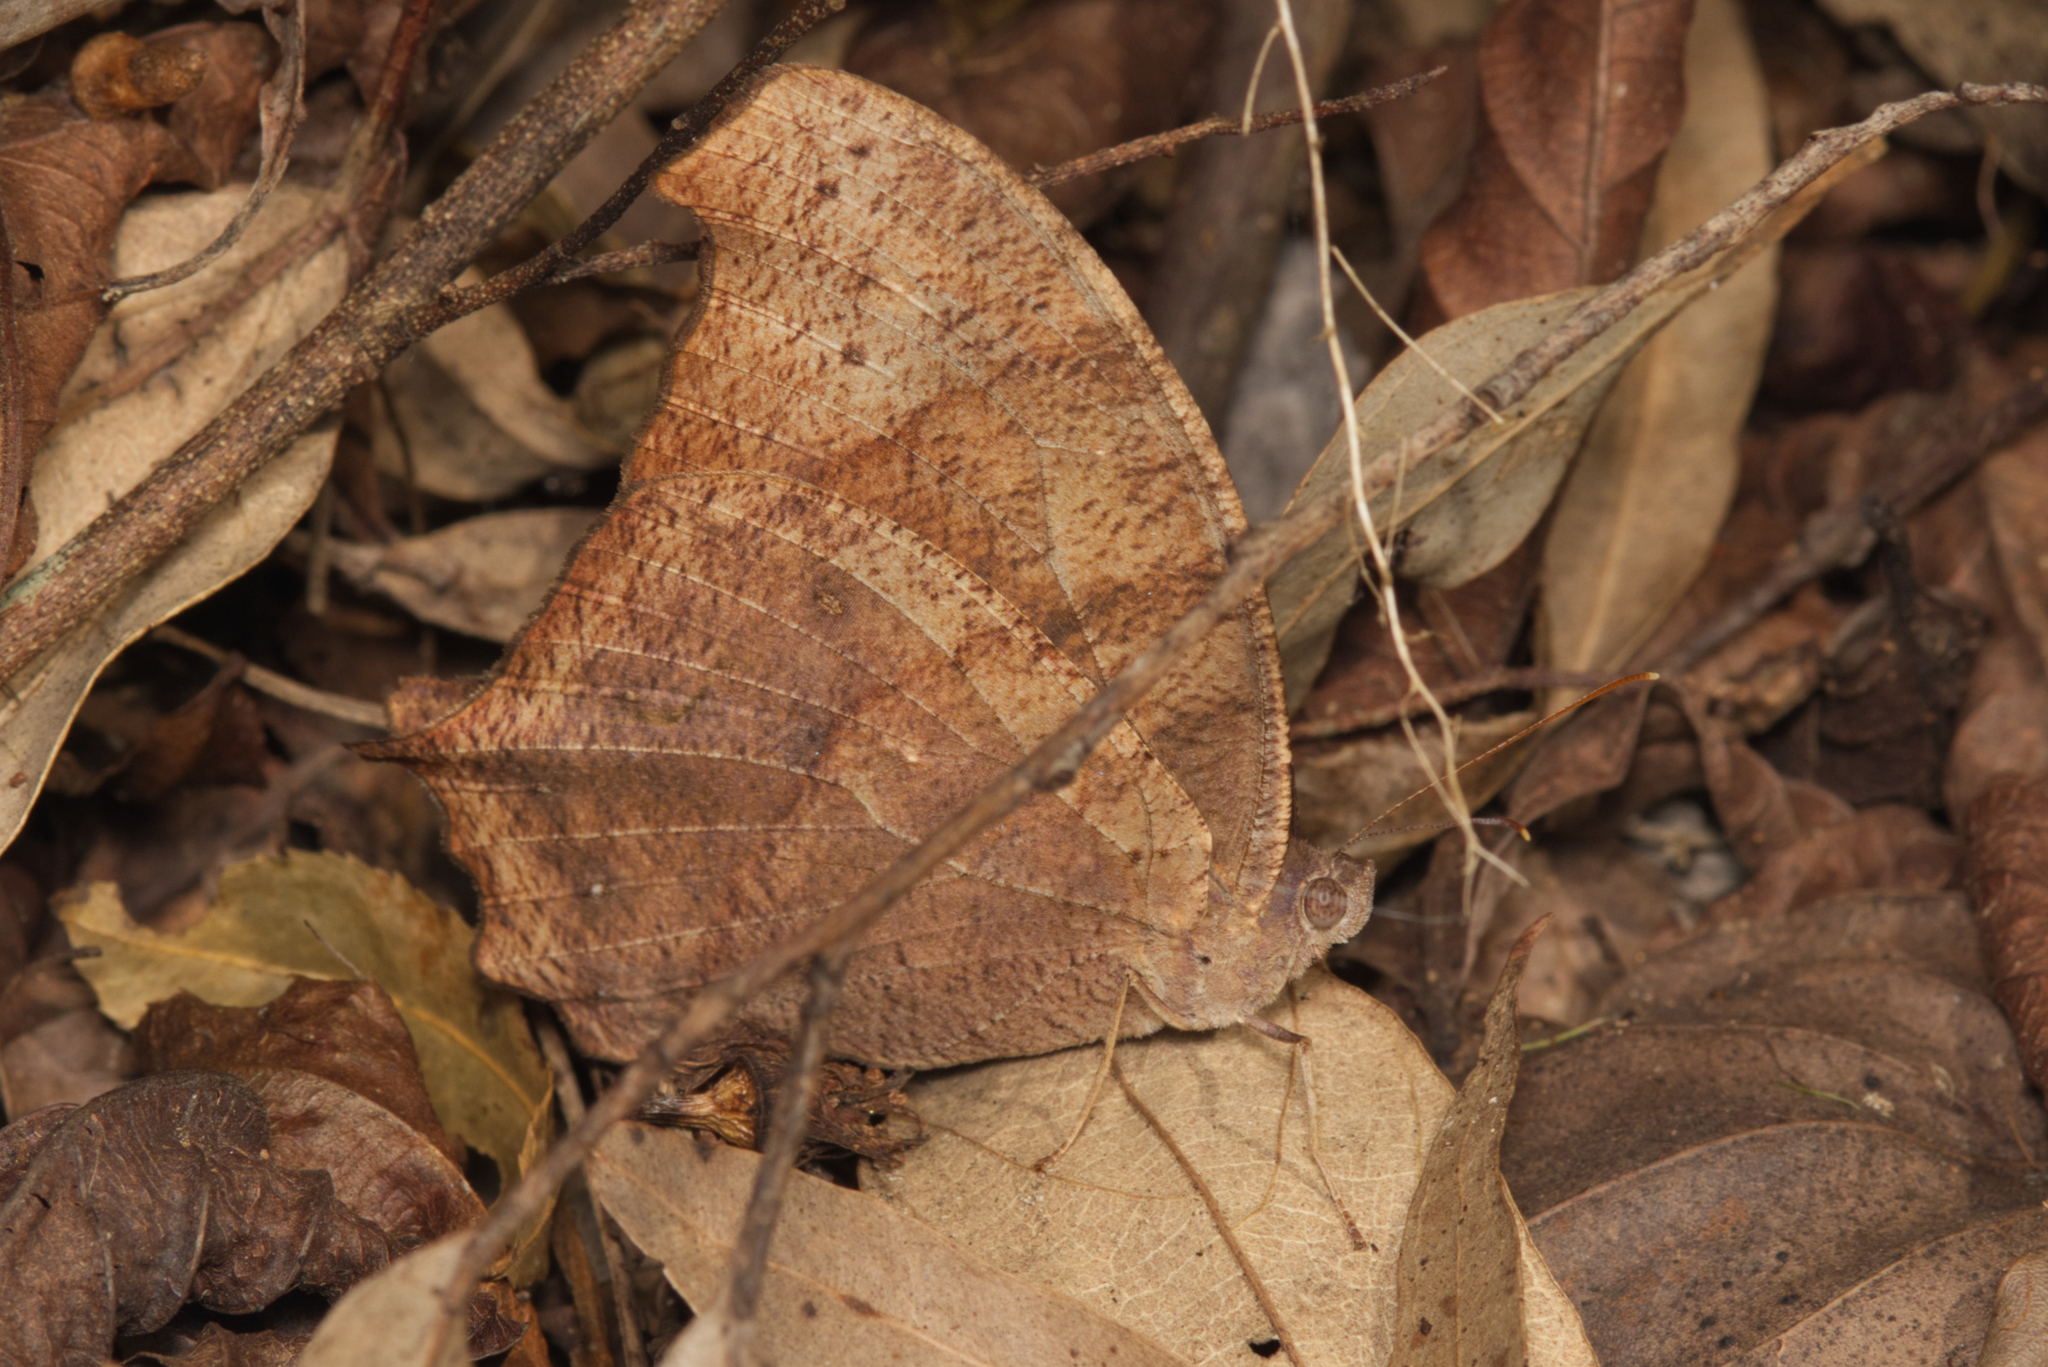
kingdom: Animalia
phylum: Arthropoda
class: Insecta
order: Lepidoptera
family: Nymphalidae
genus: Melanitis
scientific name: Melanitis leda
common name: Twilight brown
